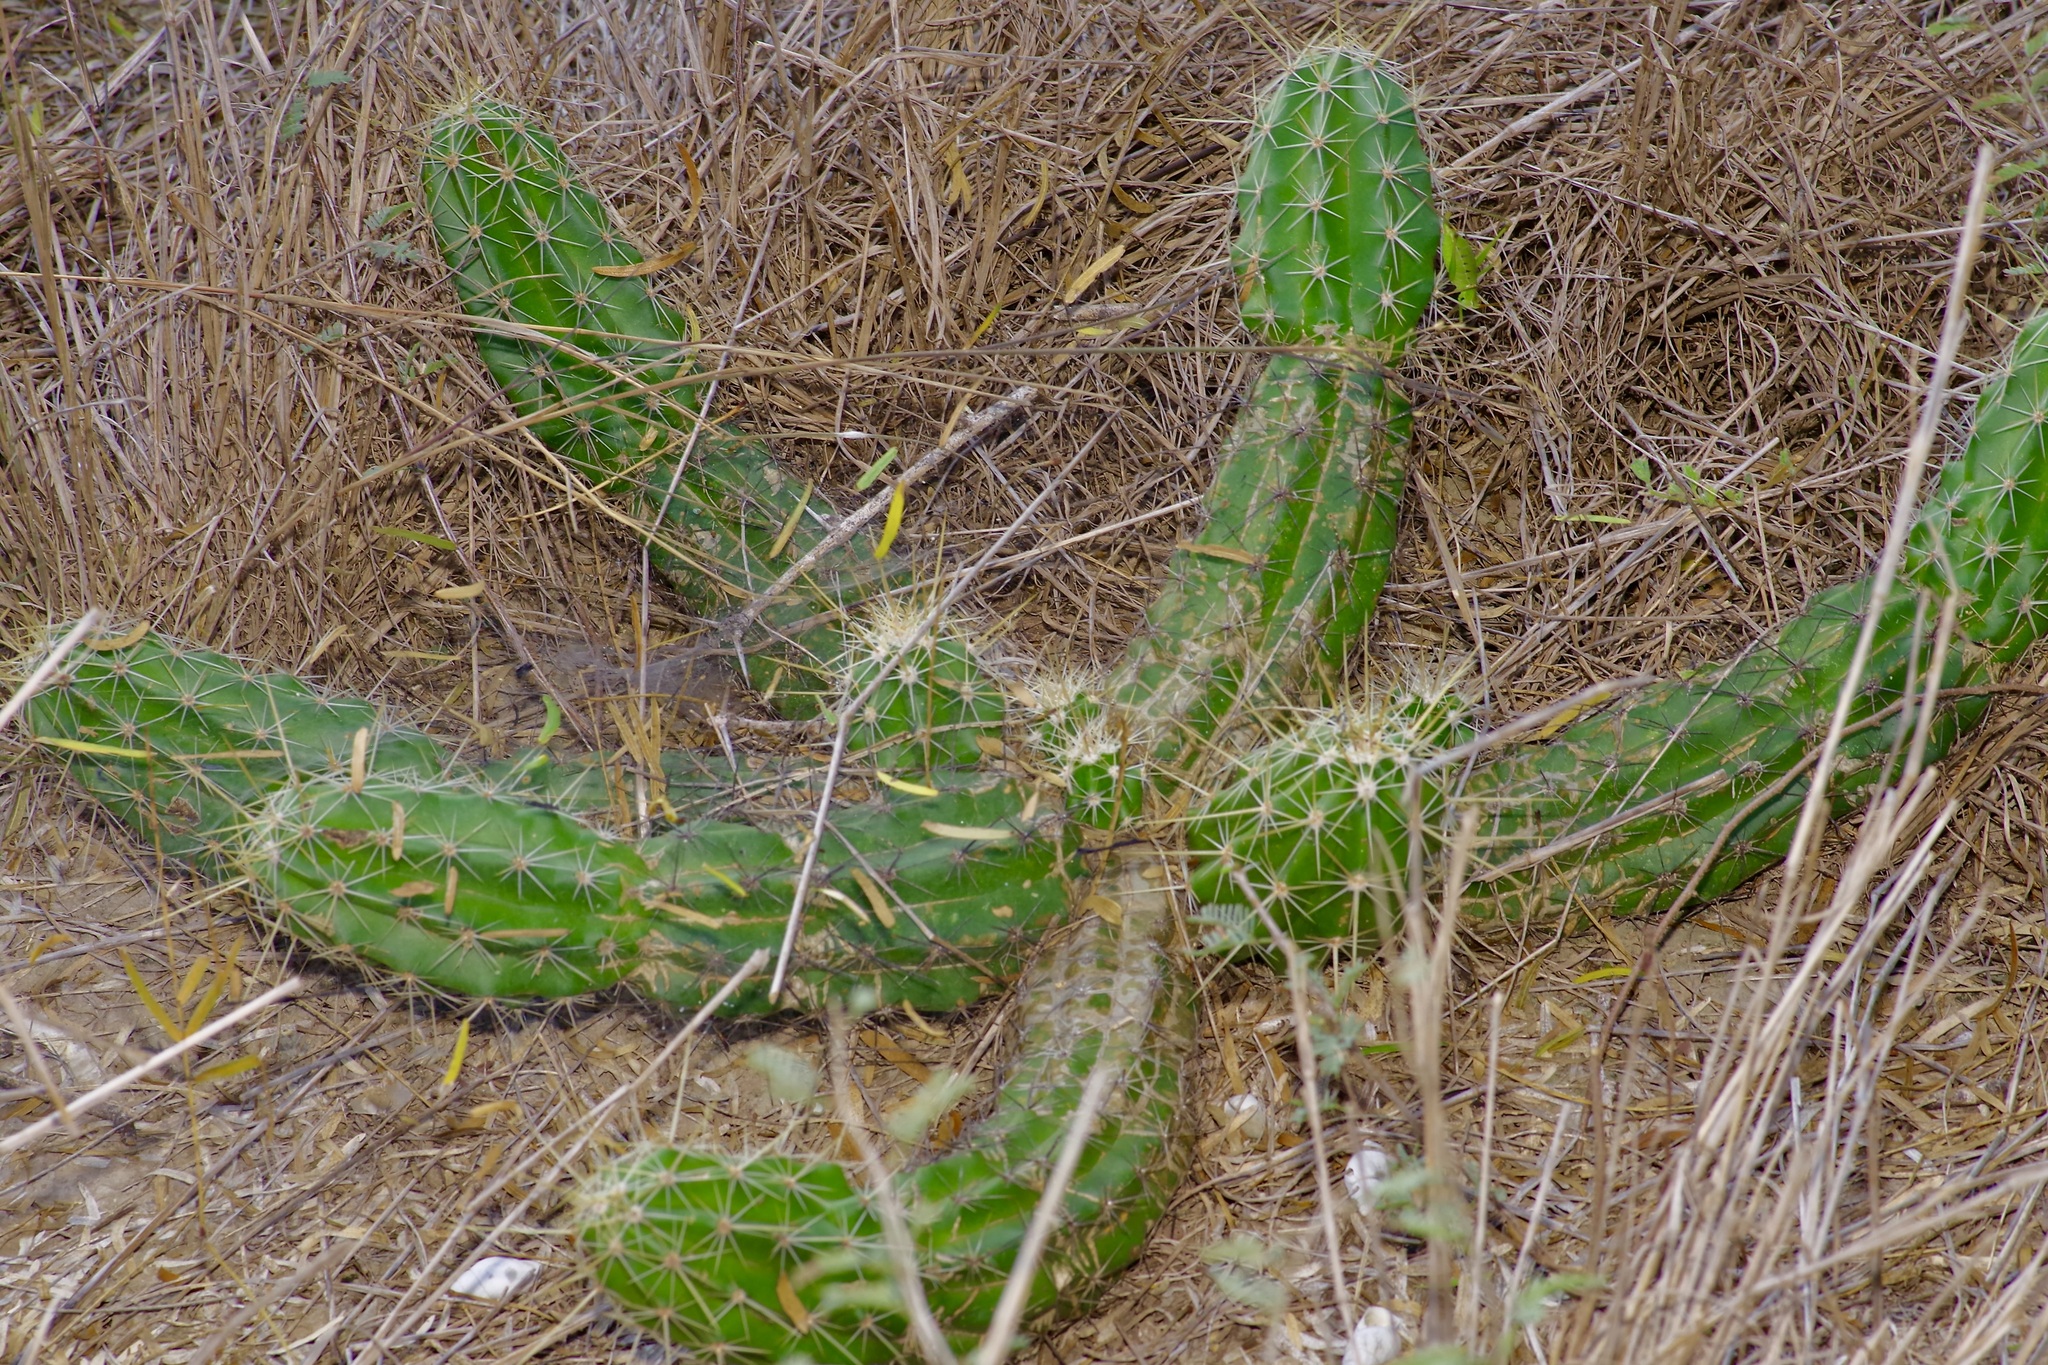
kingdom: Plantae
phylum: Tracheophyta
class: Magnoliopsida
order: Caryophyllales
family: Cactaceae
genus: Echinocereus
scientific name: Echinocereus enneacanthus
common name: Pitaya
